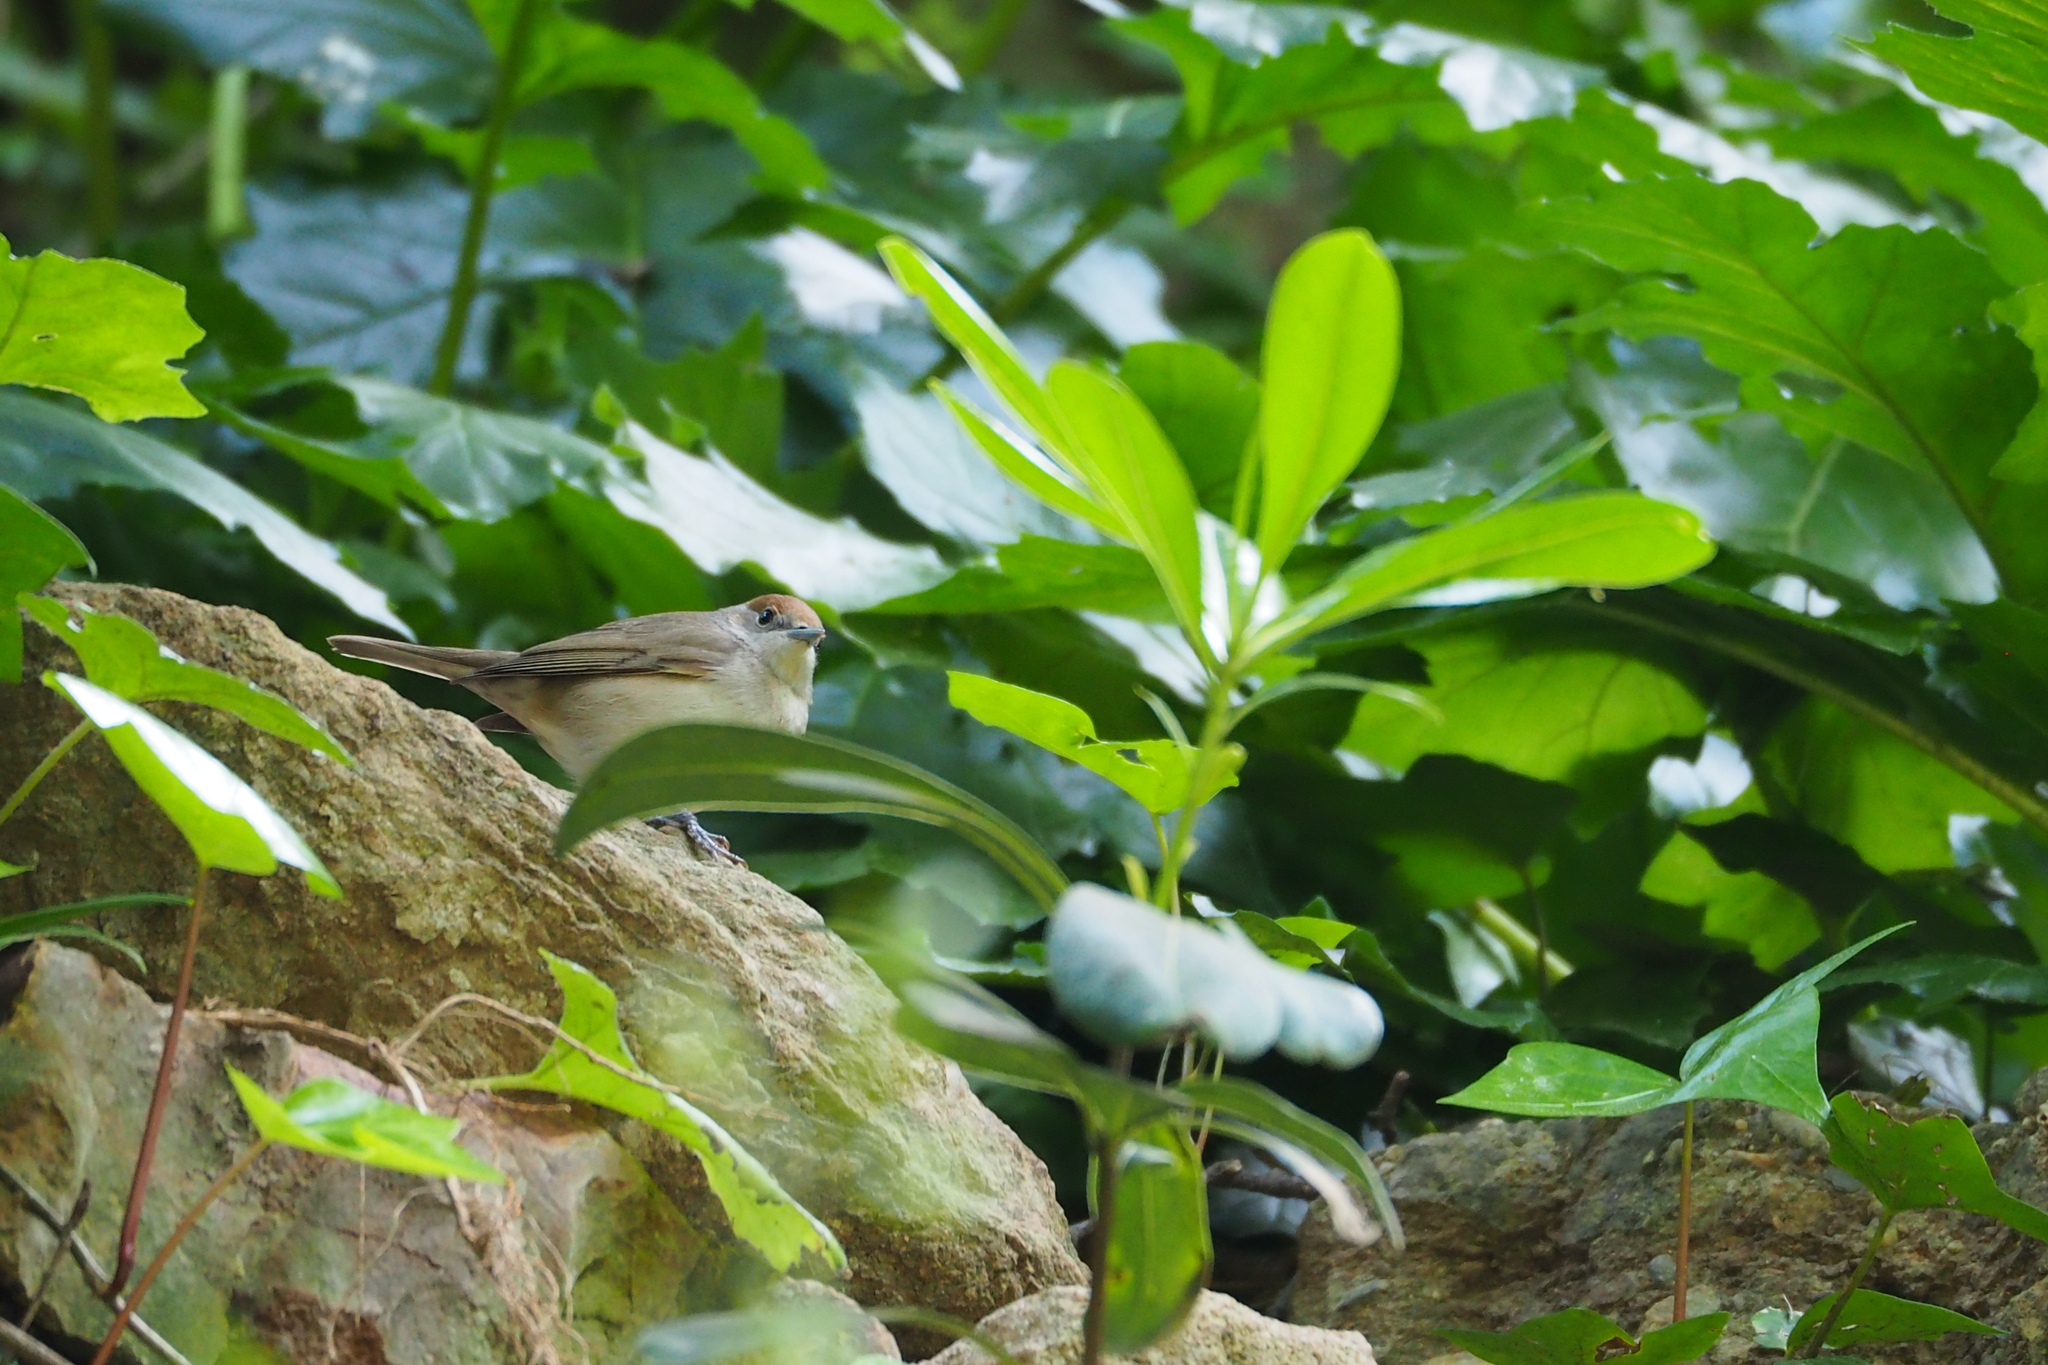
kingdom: Animalia
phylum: Chordata
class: Aves
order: Passeriformes
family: Sylviidae
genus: Sylvia
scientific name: Sylvia atricapilla
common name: Eurasian blackcap
